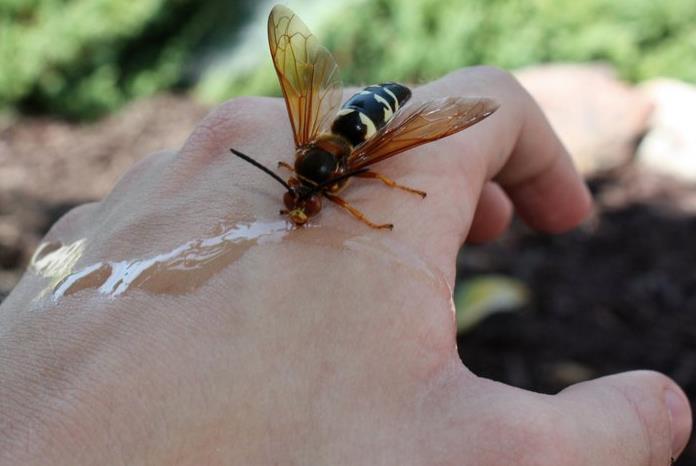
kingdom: Animalia
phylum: Arthropoda
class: Insecta
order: Hymenoptera
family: Crabronidae
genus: Sphecius
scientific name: Sphecius speciosus
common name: Cicada killer
